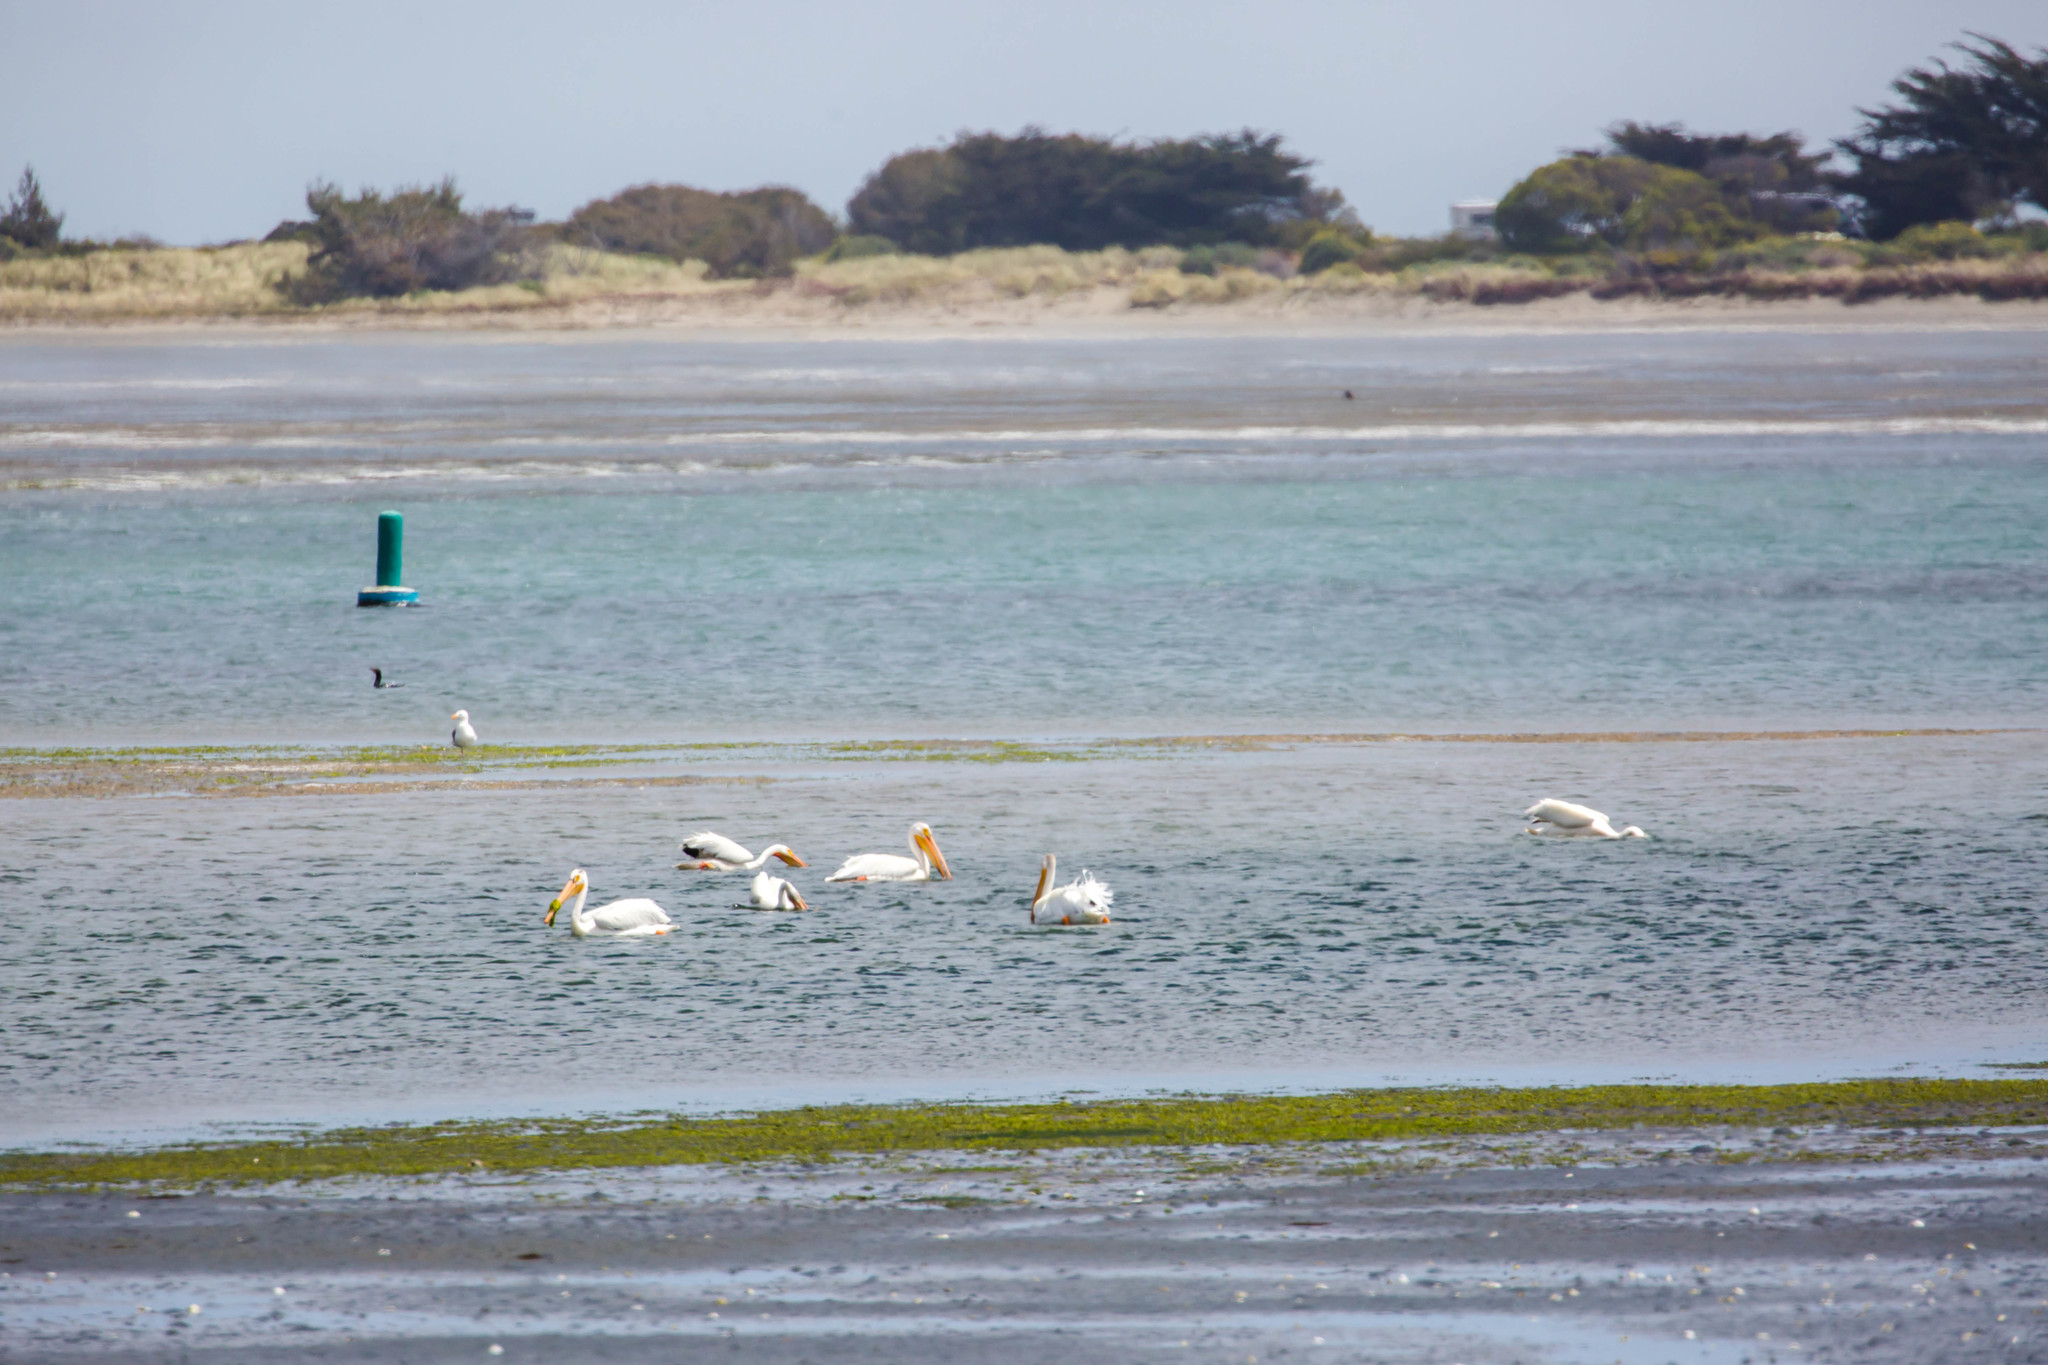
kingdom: Animalia
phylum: Chordata
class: Aves
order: Pelecaniformes
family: Pelecanidae
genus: Pelecanus
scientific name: Pelecanus erythrorhynchos
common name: American white pelican
